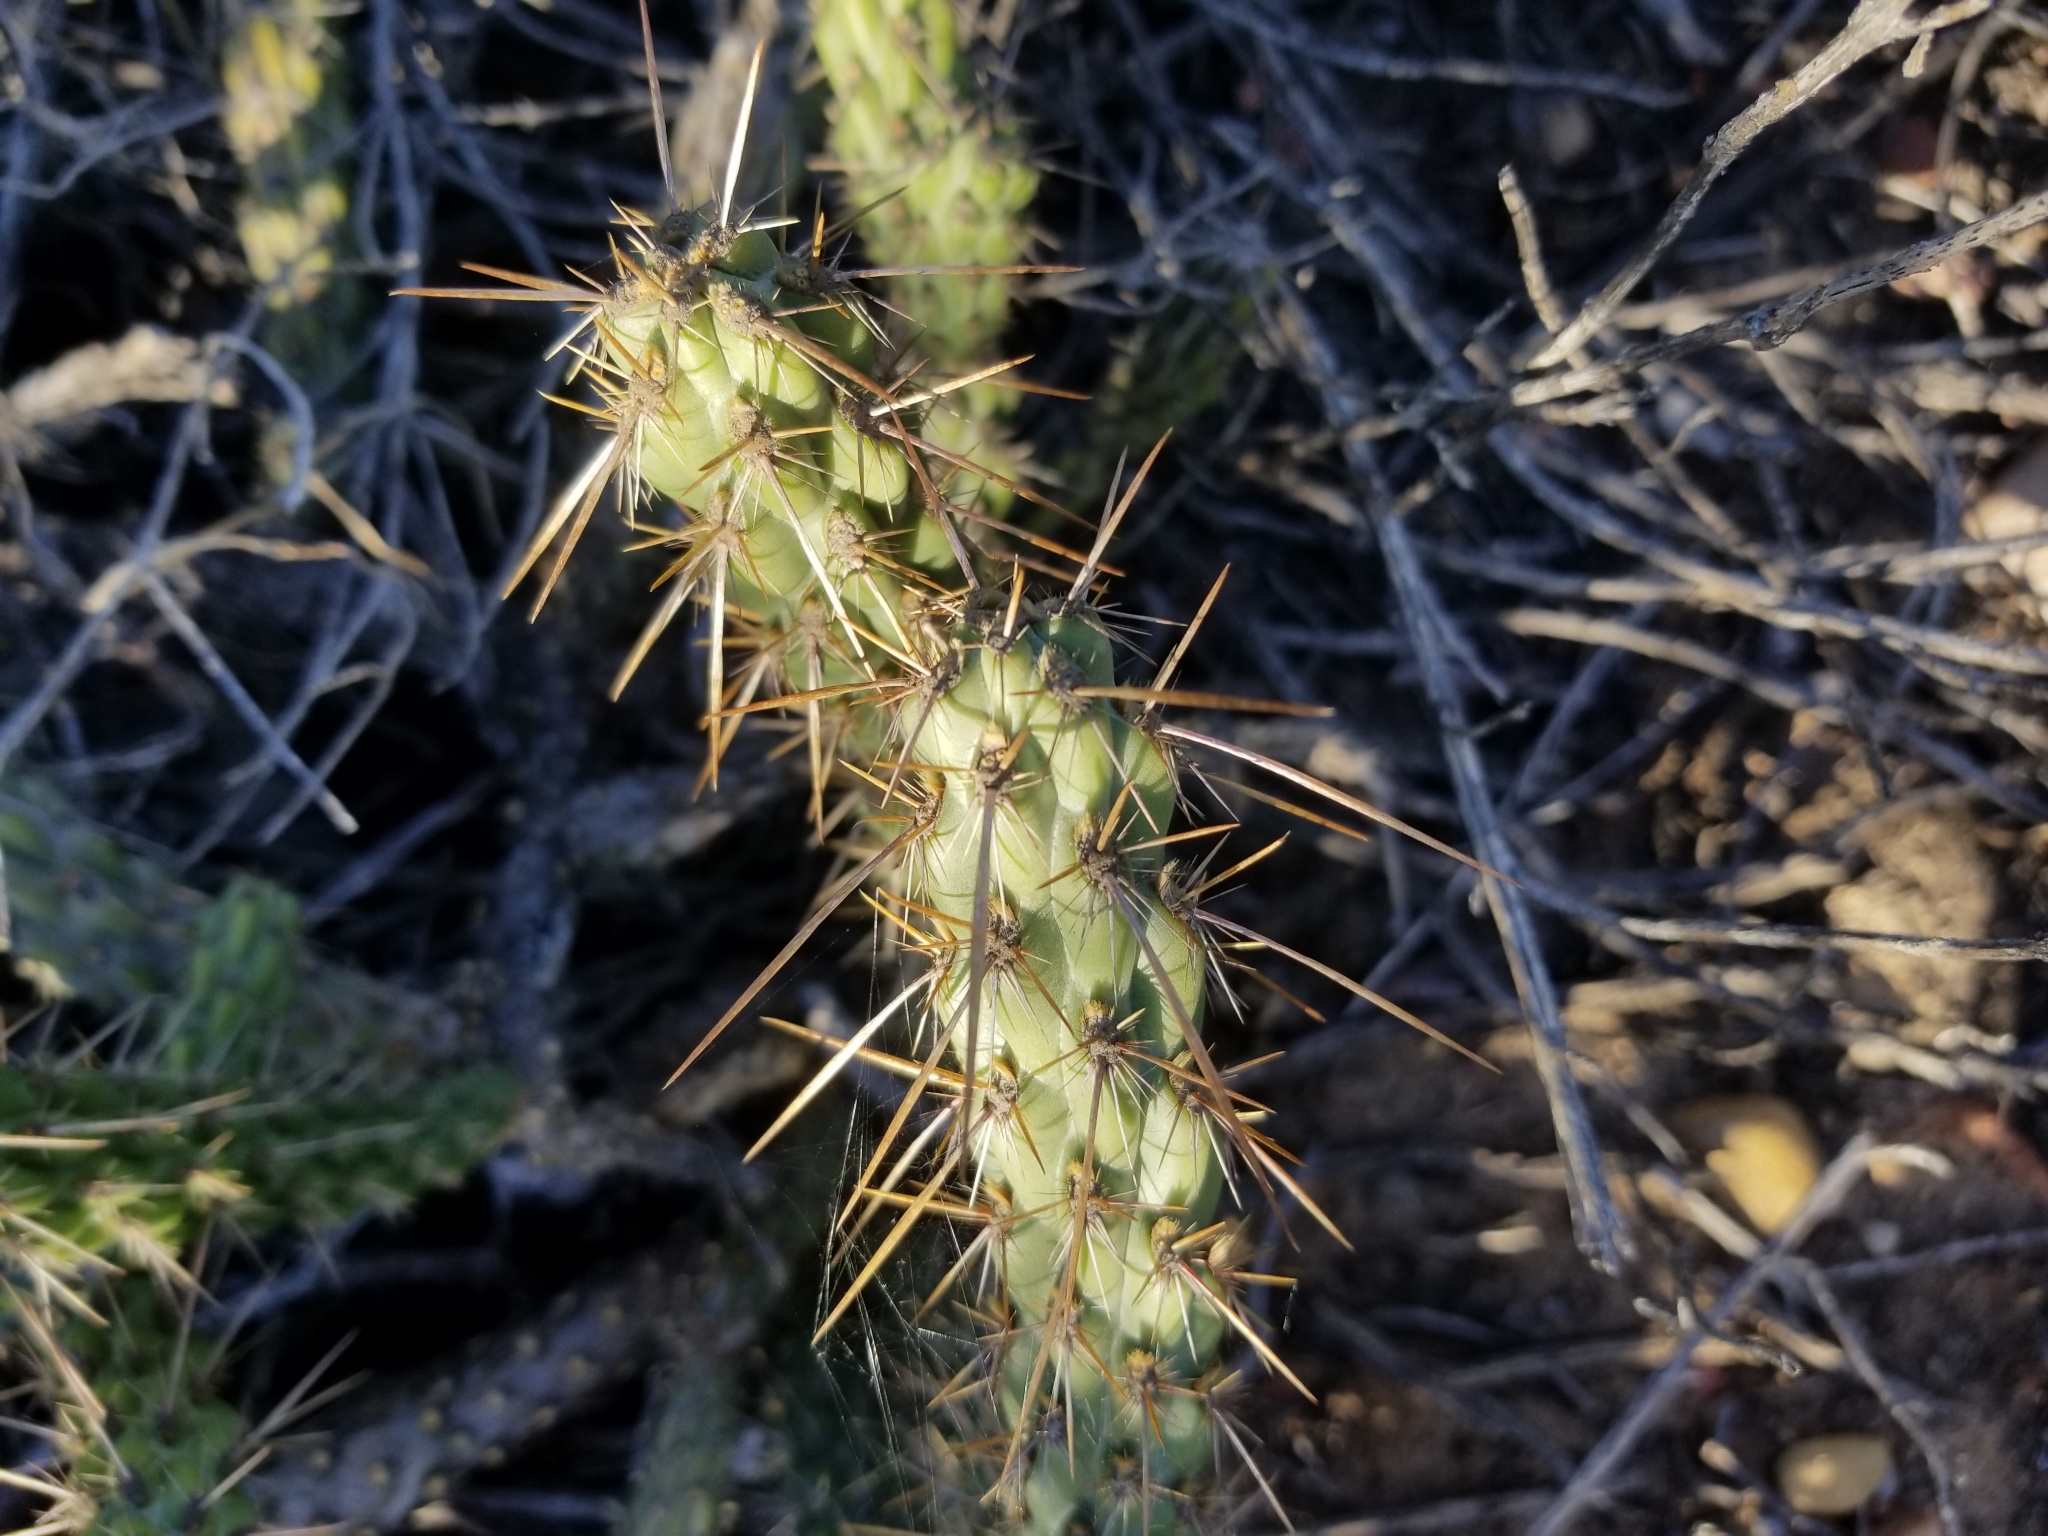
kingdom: Plantae
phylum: Tracheophyta
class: Magnoliopsida
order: Caryophyllales
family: Cactaceae
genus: Cylindropuntia
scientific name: Cylindropuntia californica
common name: Snake cholla
